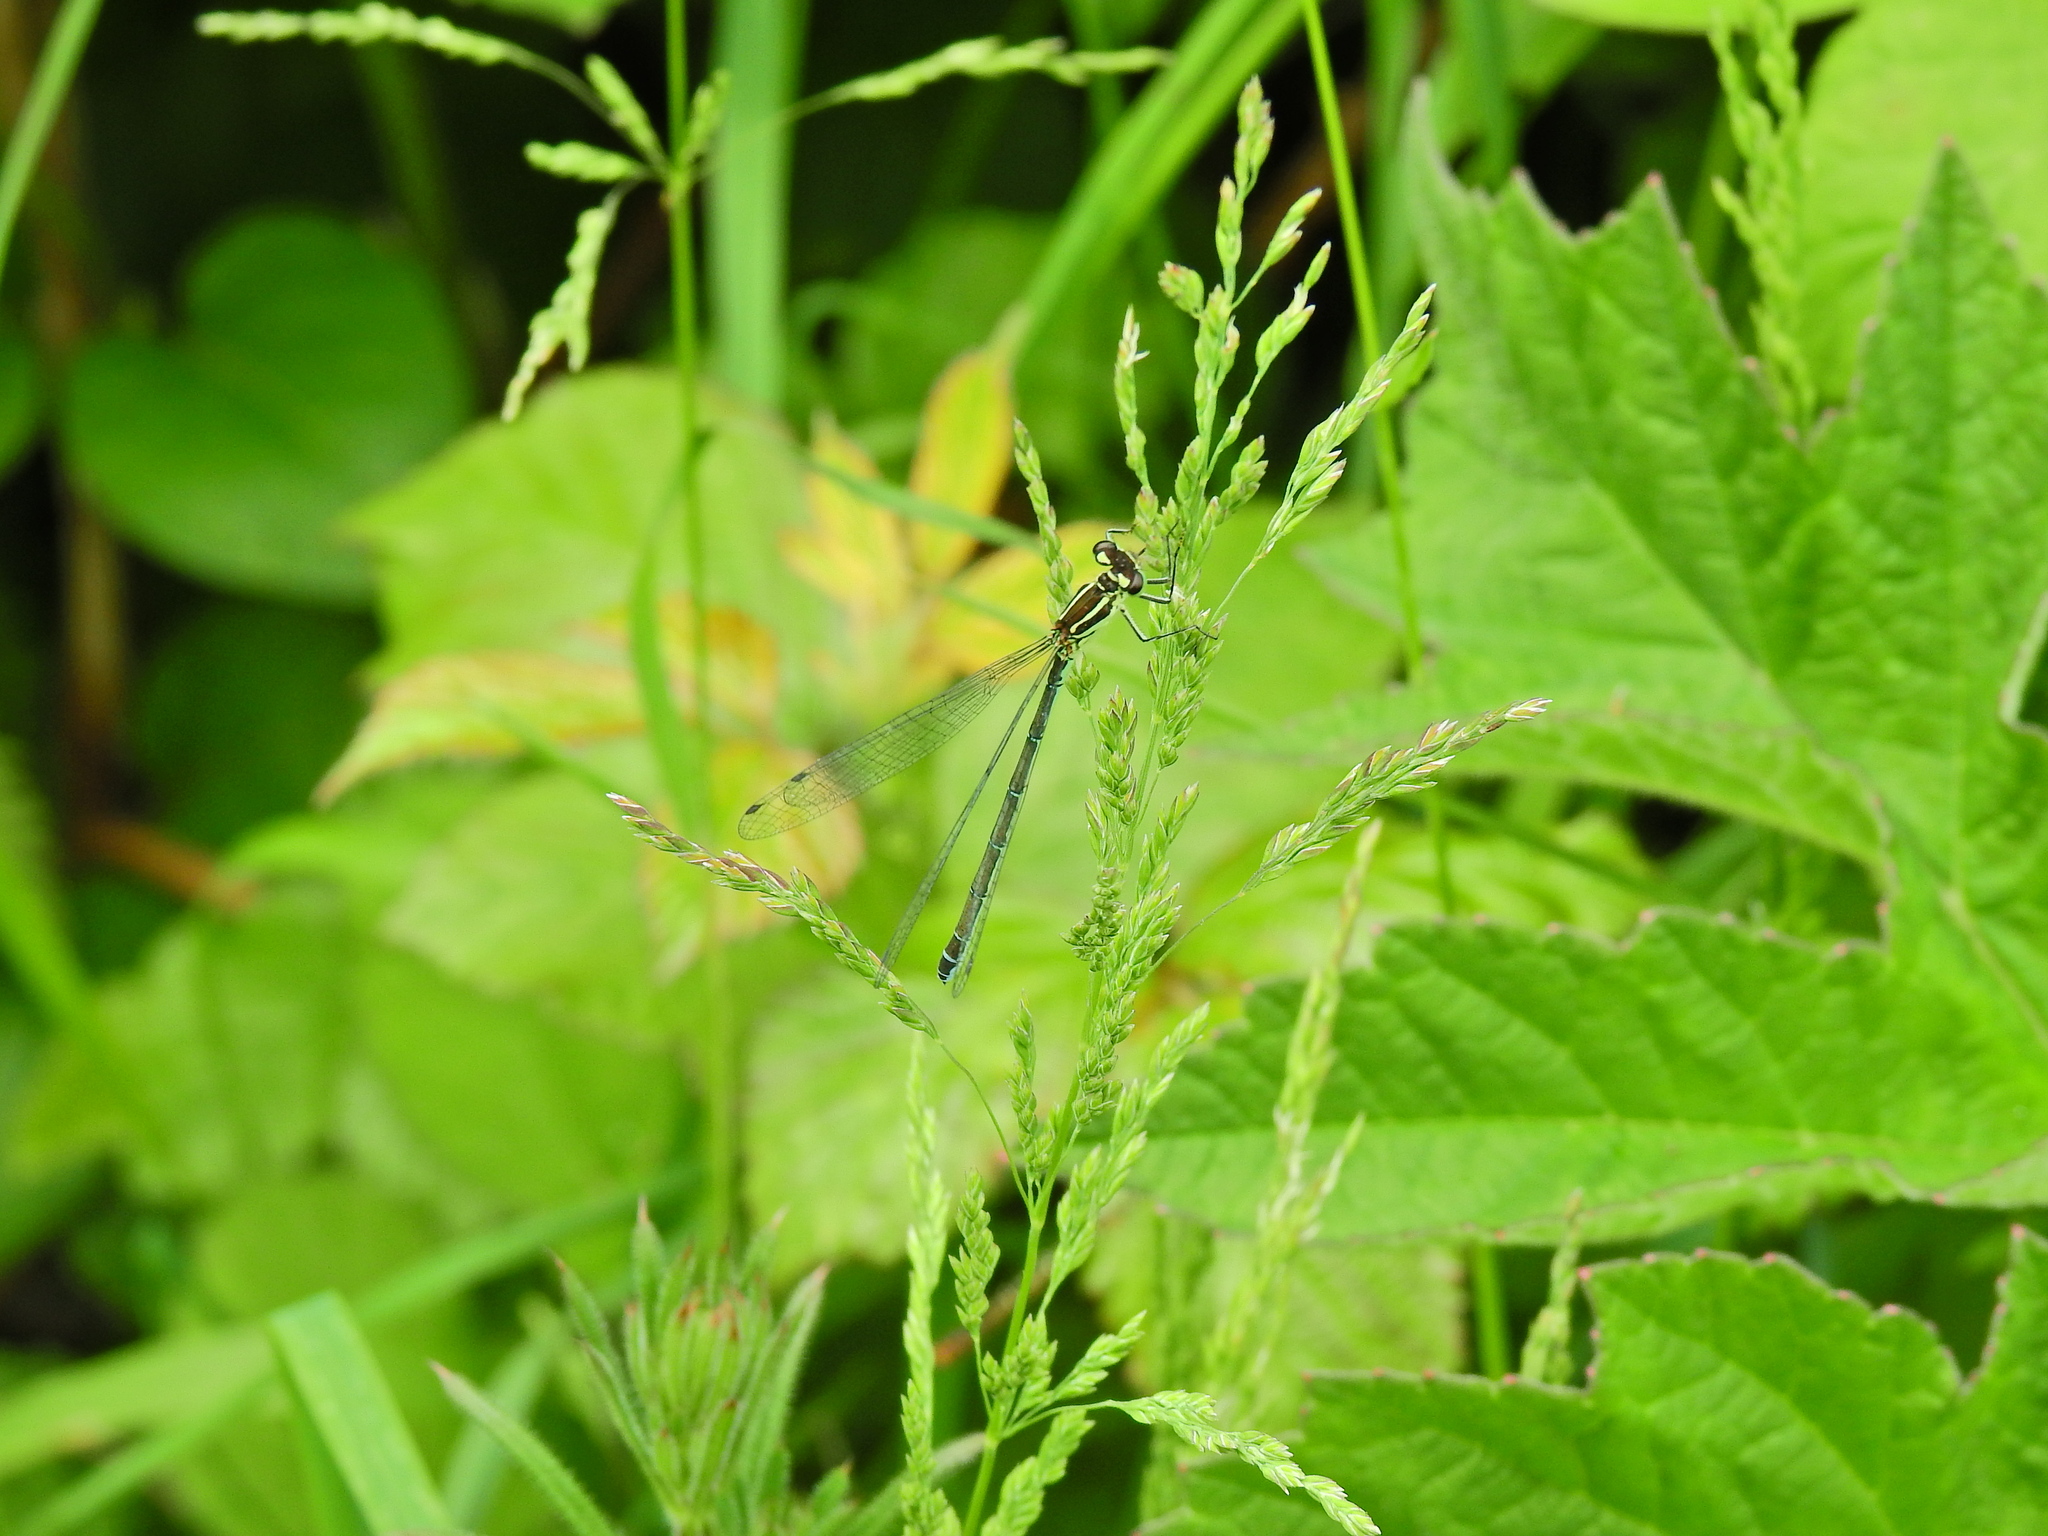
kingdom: Animalia
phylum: Arthropoda
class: Insecta
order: Odonata
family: Coenagrionidae
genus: Coenagrion
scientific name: Coenagrion puella
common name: Azure damselfly
